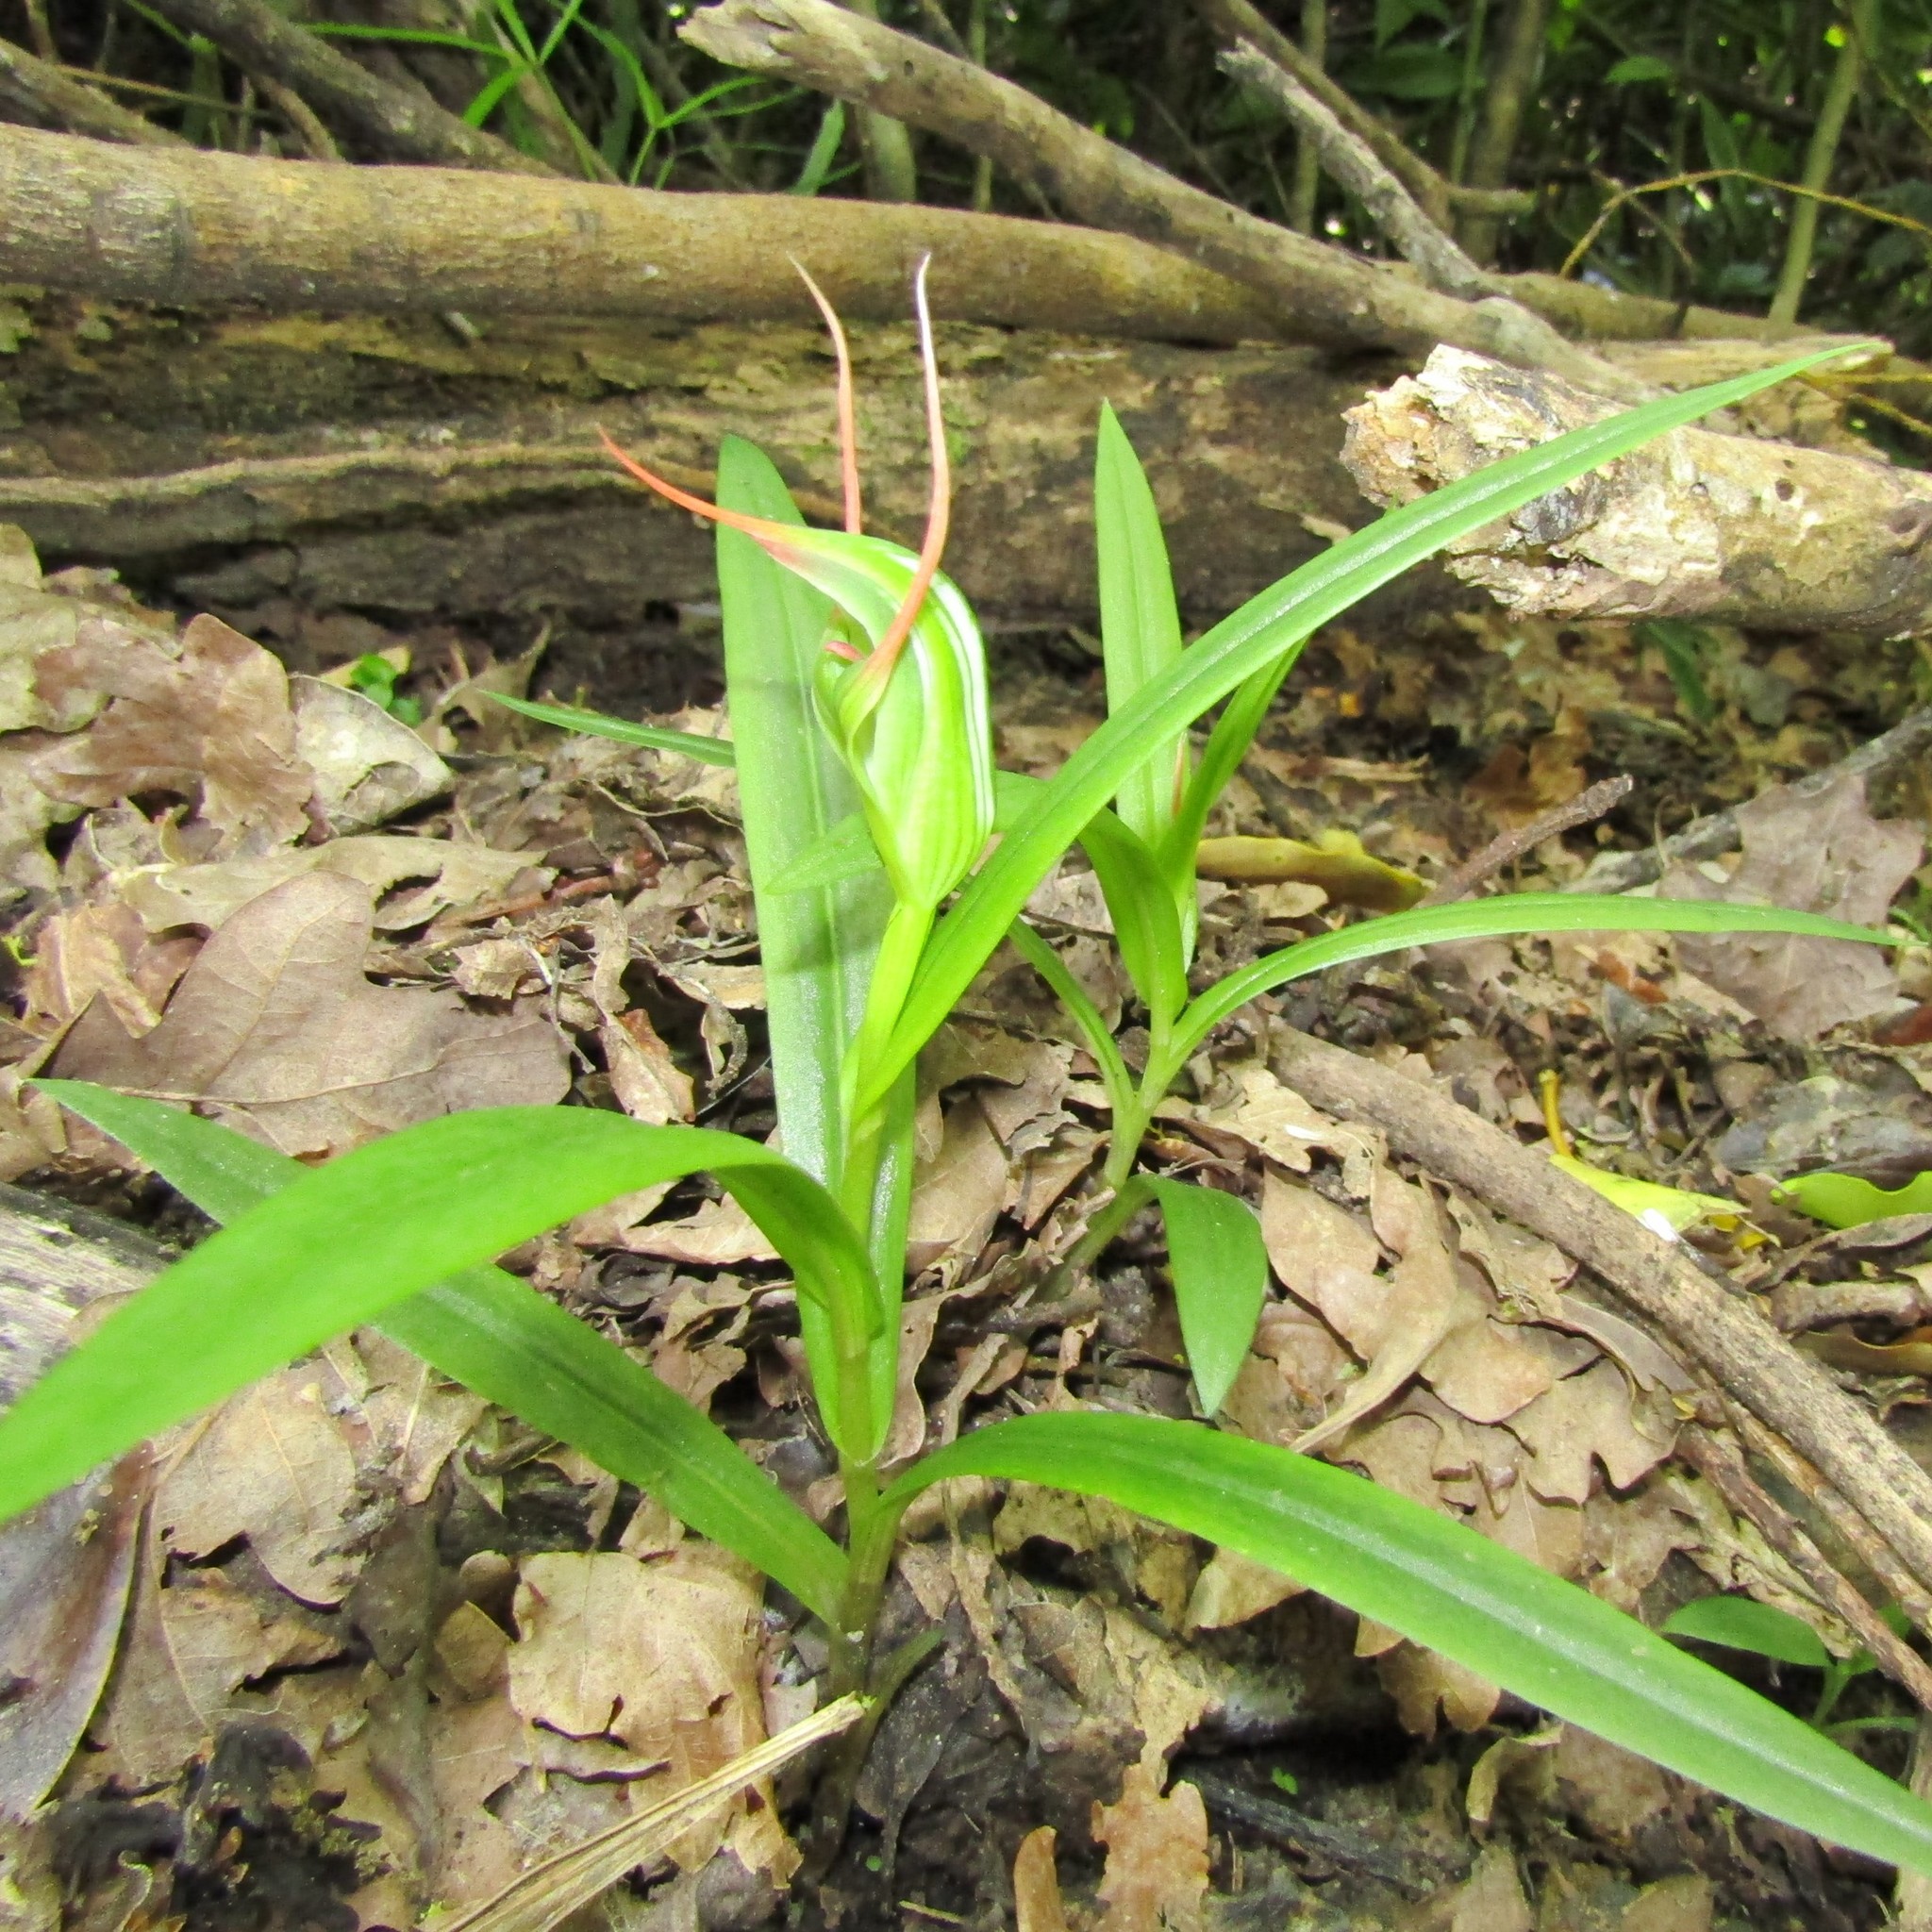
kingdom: Plantae
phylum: Tracheophyta
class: Liliopsida
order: Asparagales
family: Orchidaceae
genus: Pterostylis
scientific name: Pterostylis banksii
